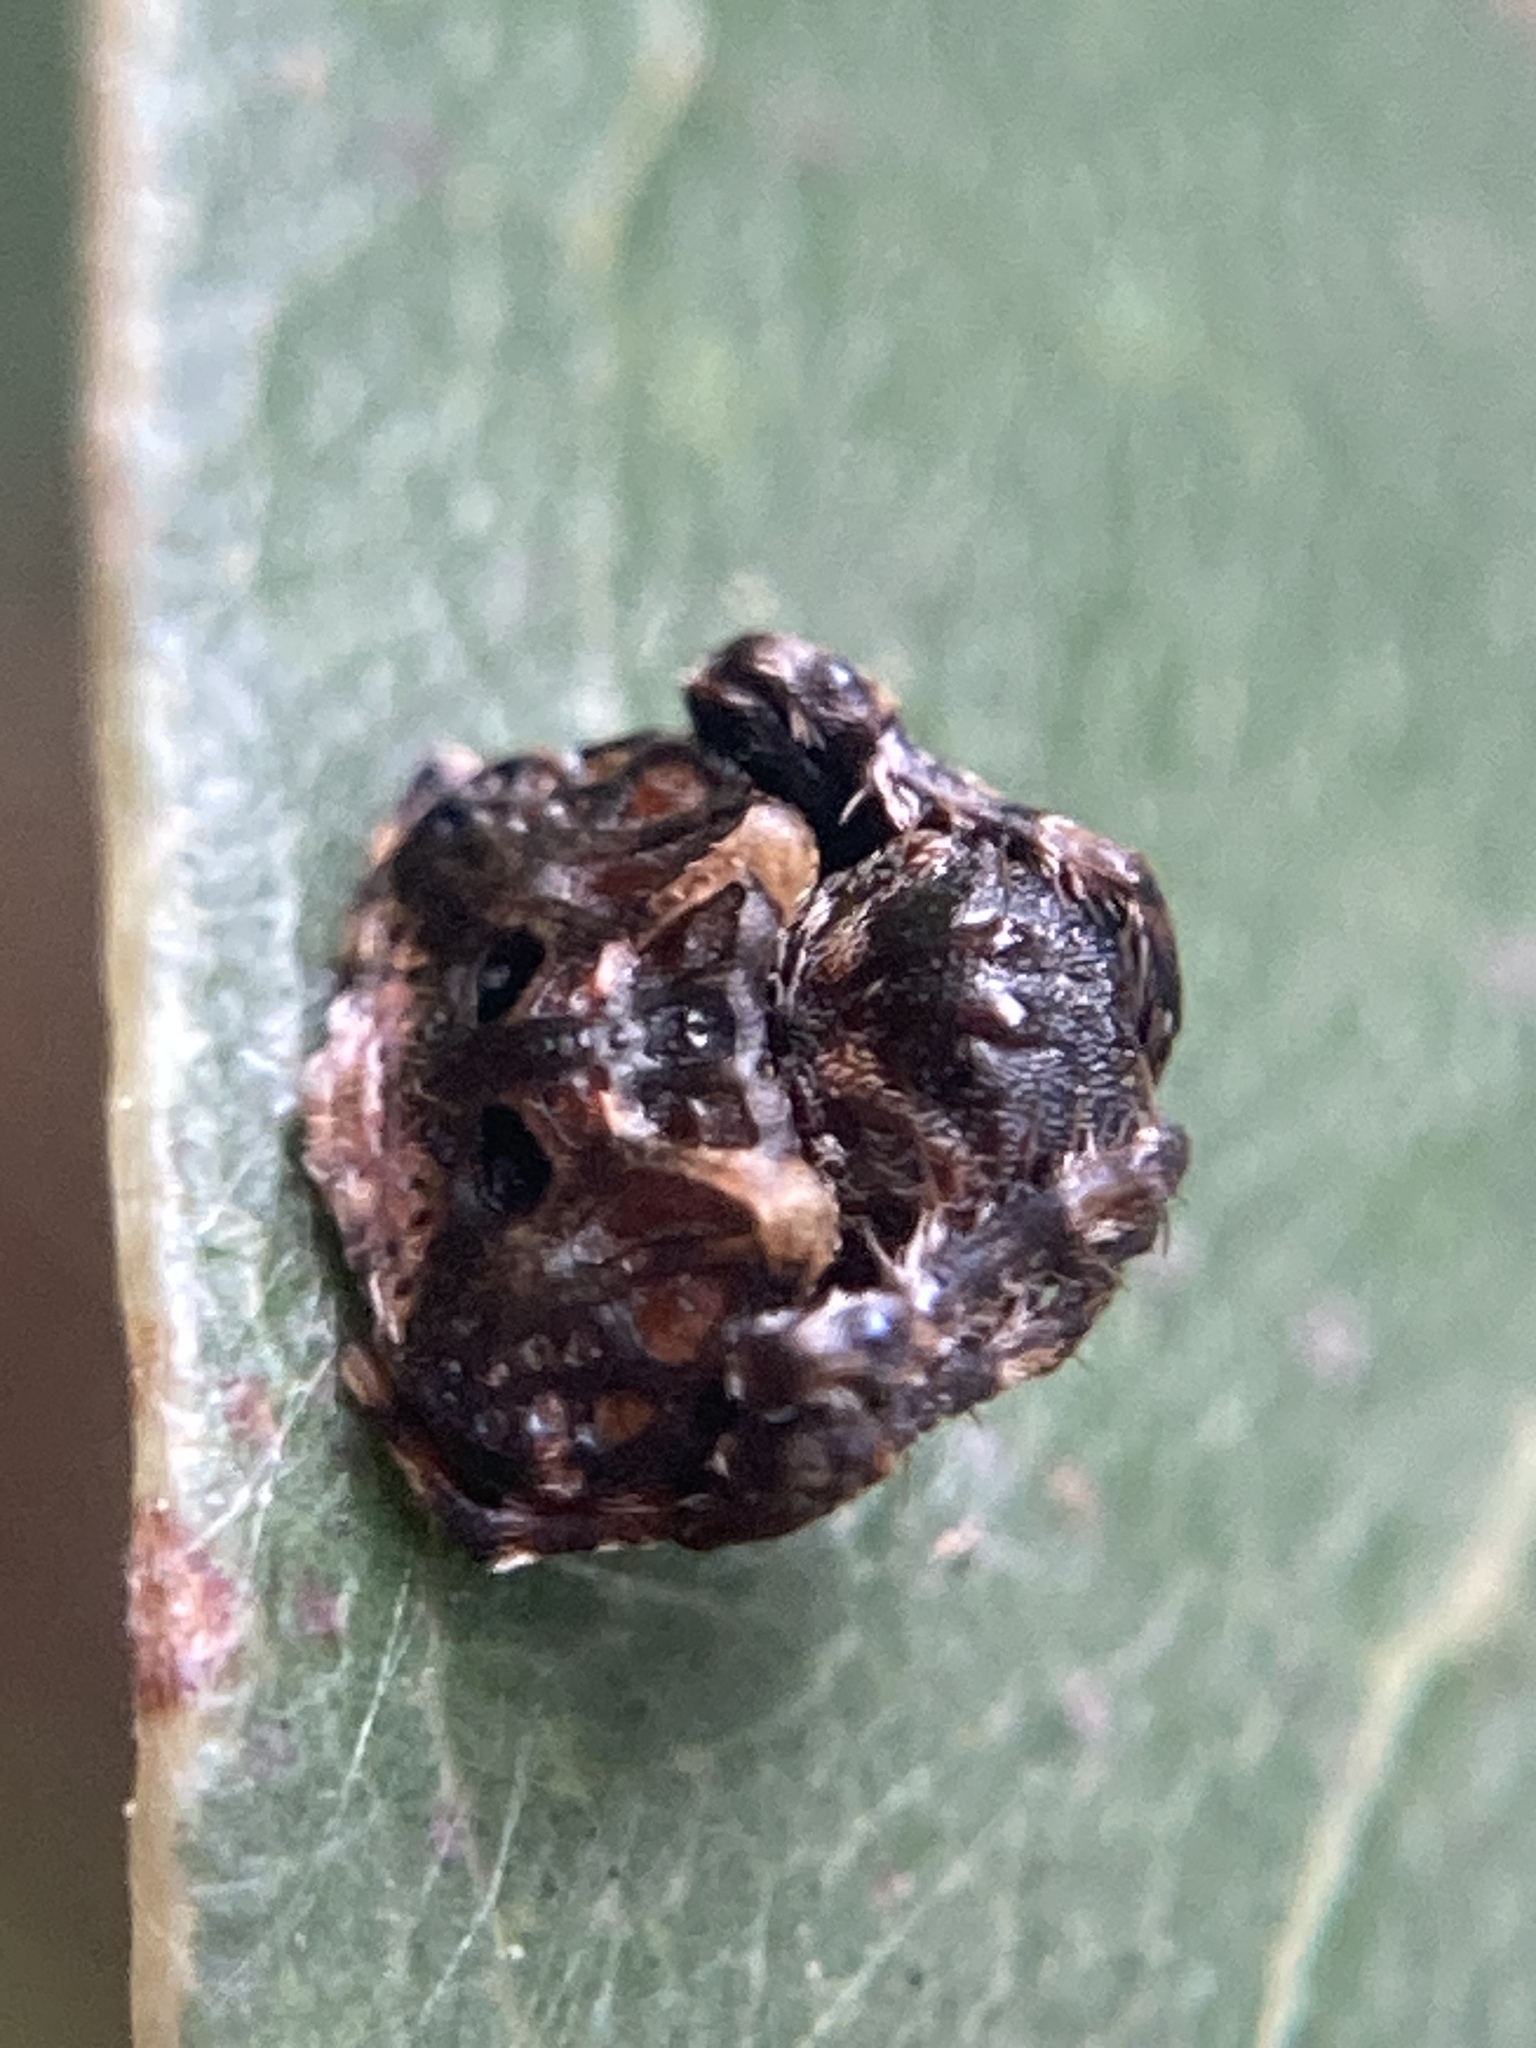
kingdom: Animalia
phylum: Arthropoda
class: Arachnida
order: Araneae
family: Arkyidae
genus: Arkys
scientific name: Arkys curtulus
